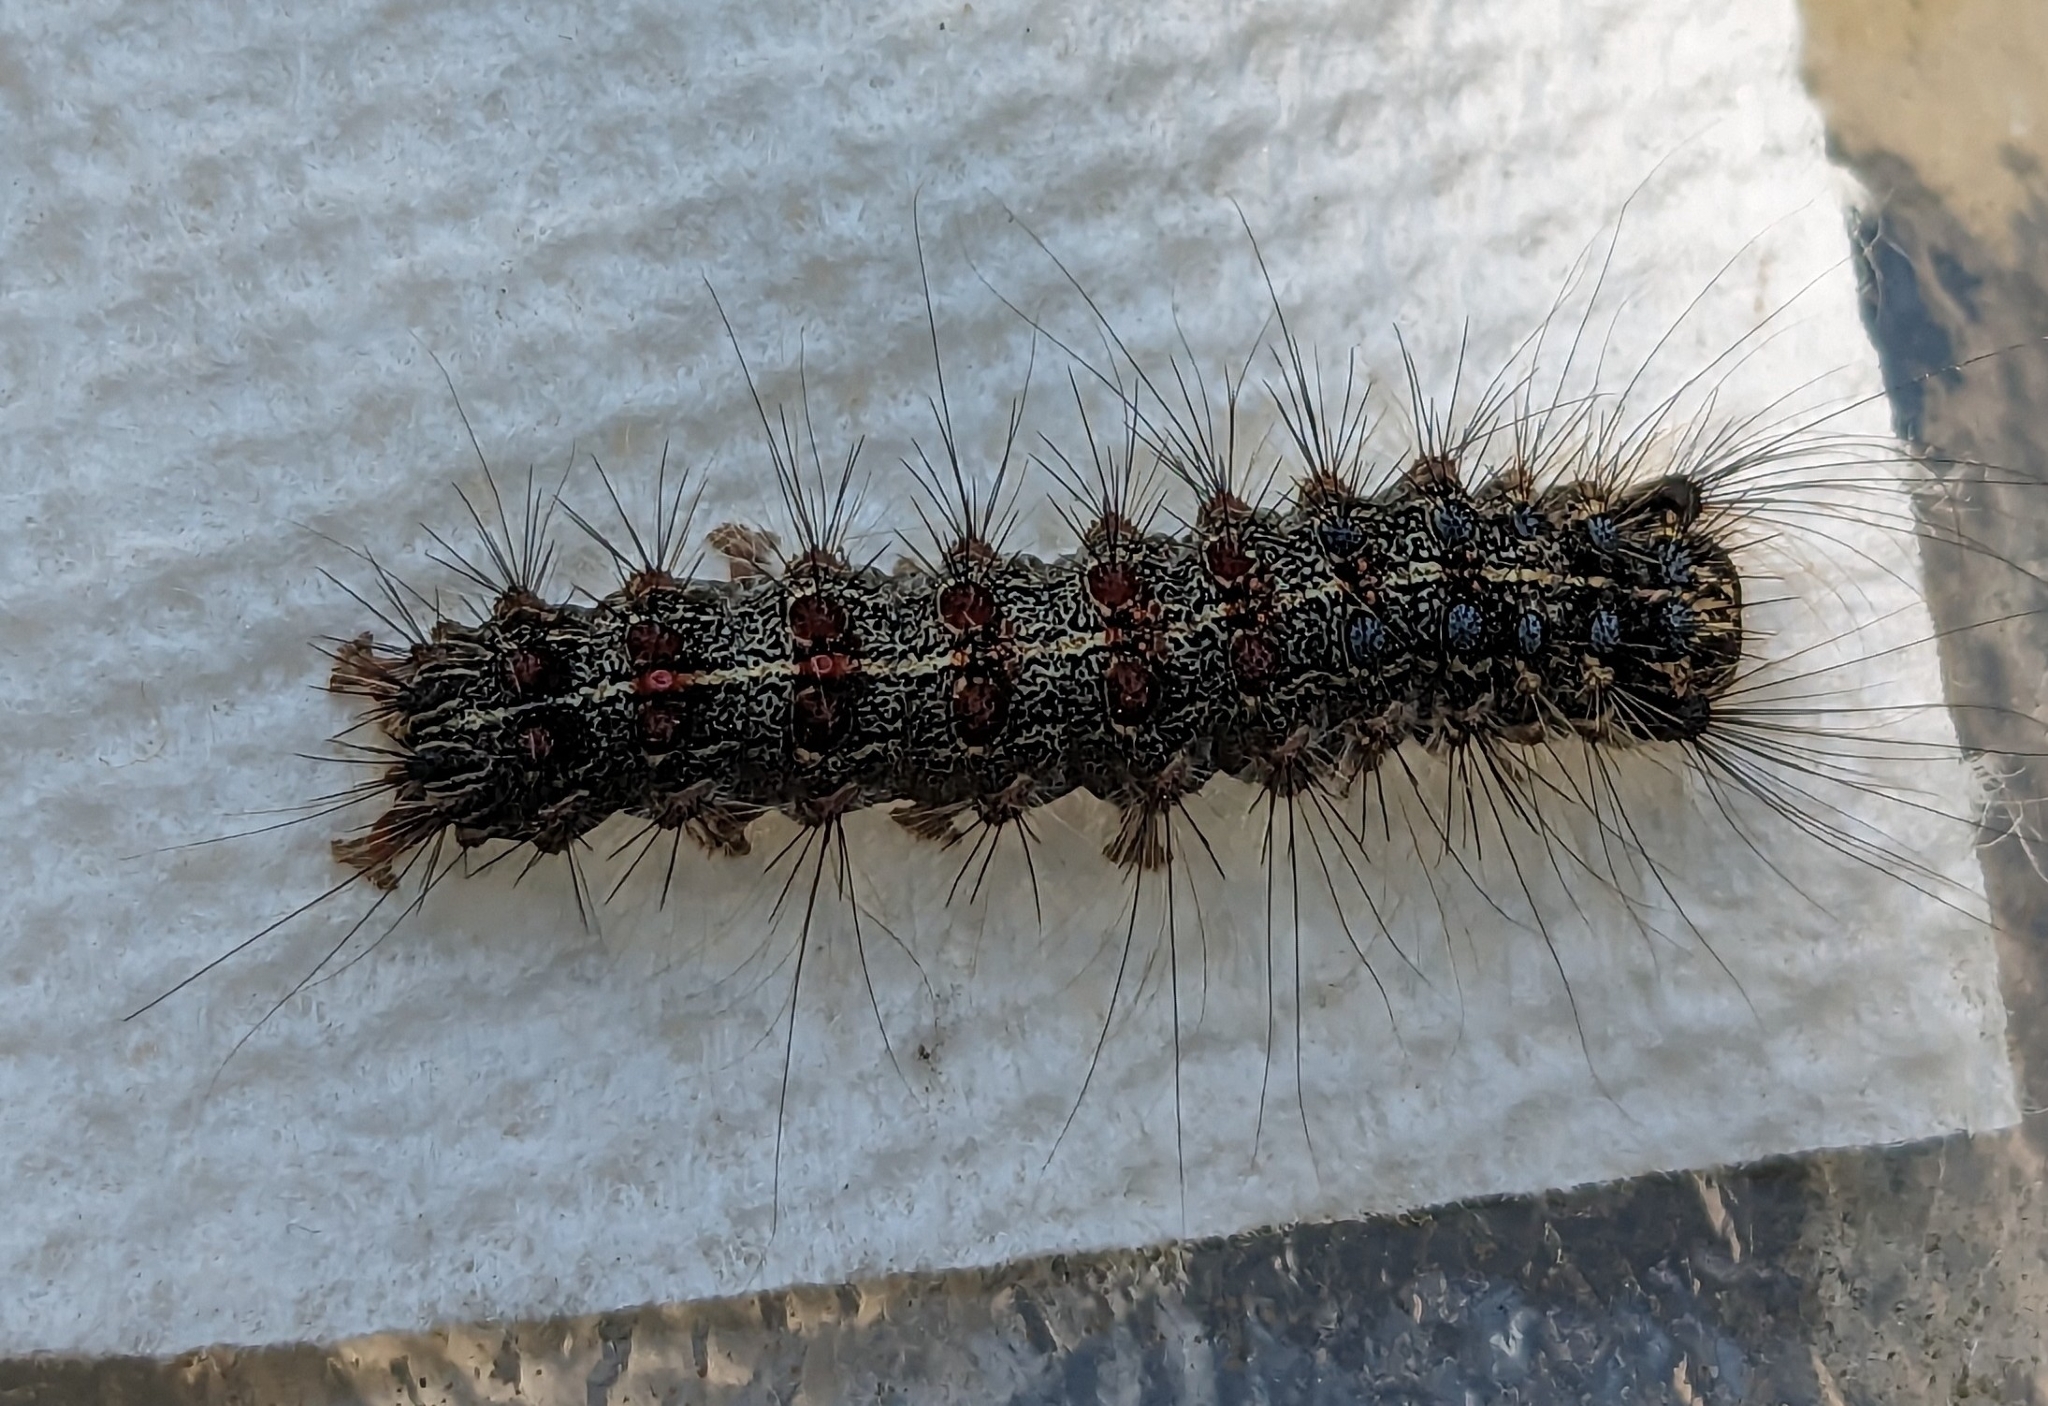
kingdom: Animalia
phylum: Arthropoda
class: Insecta
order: Lepidoptera
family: Erebidae
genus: Lymantria
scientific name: Lymantria dispar
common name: Gypsy moth
